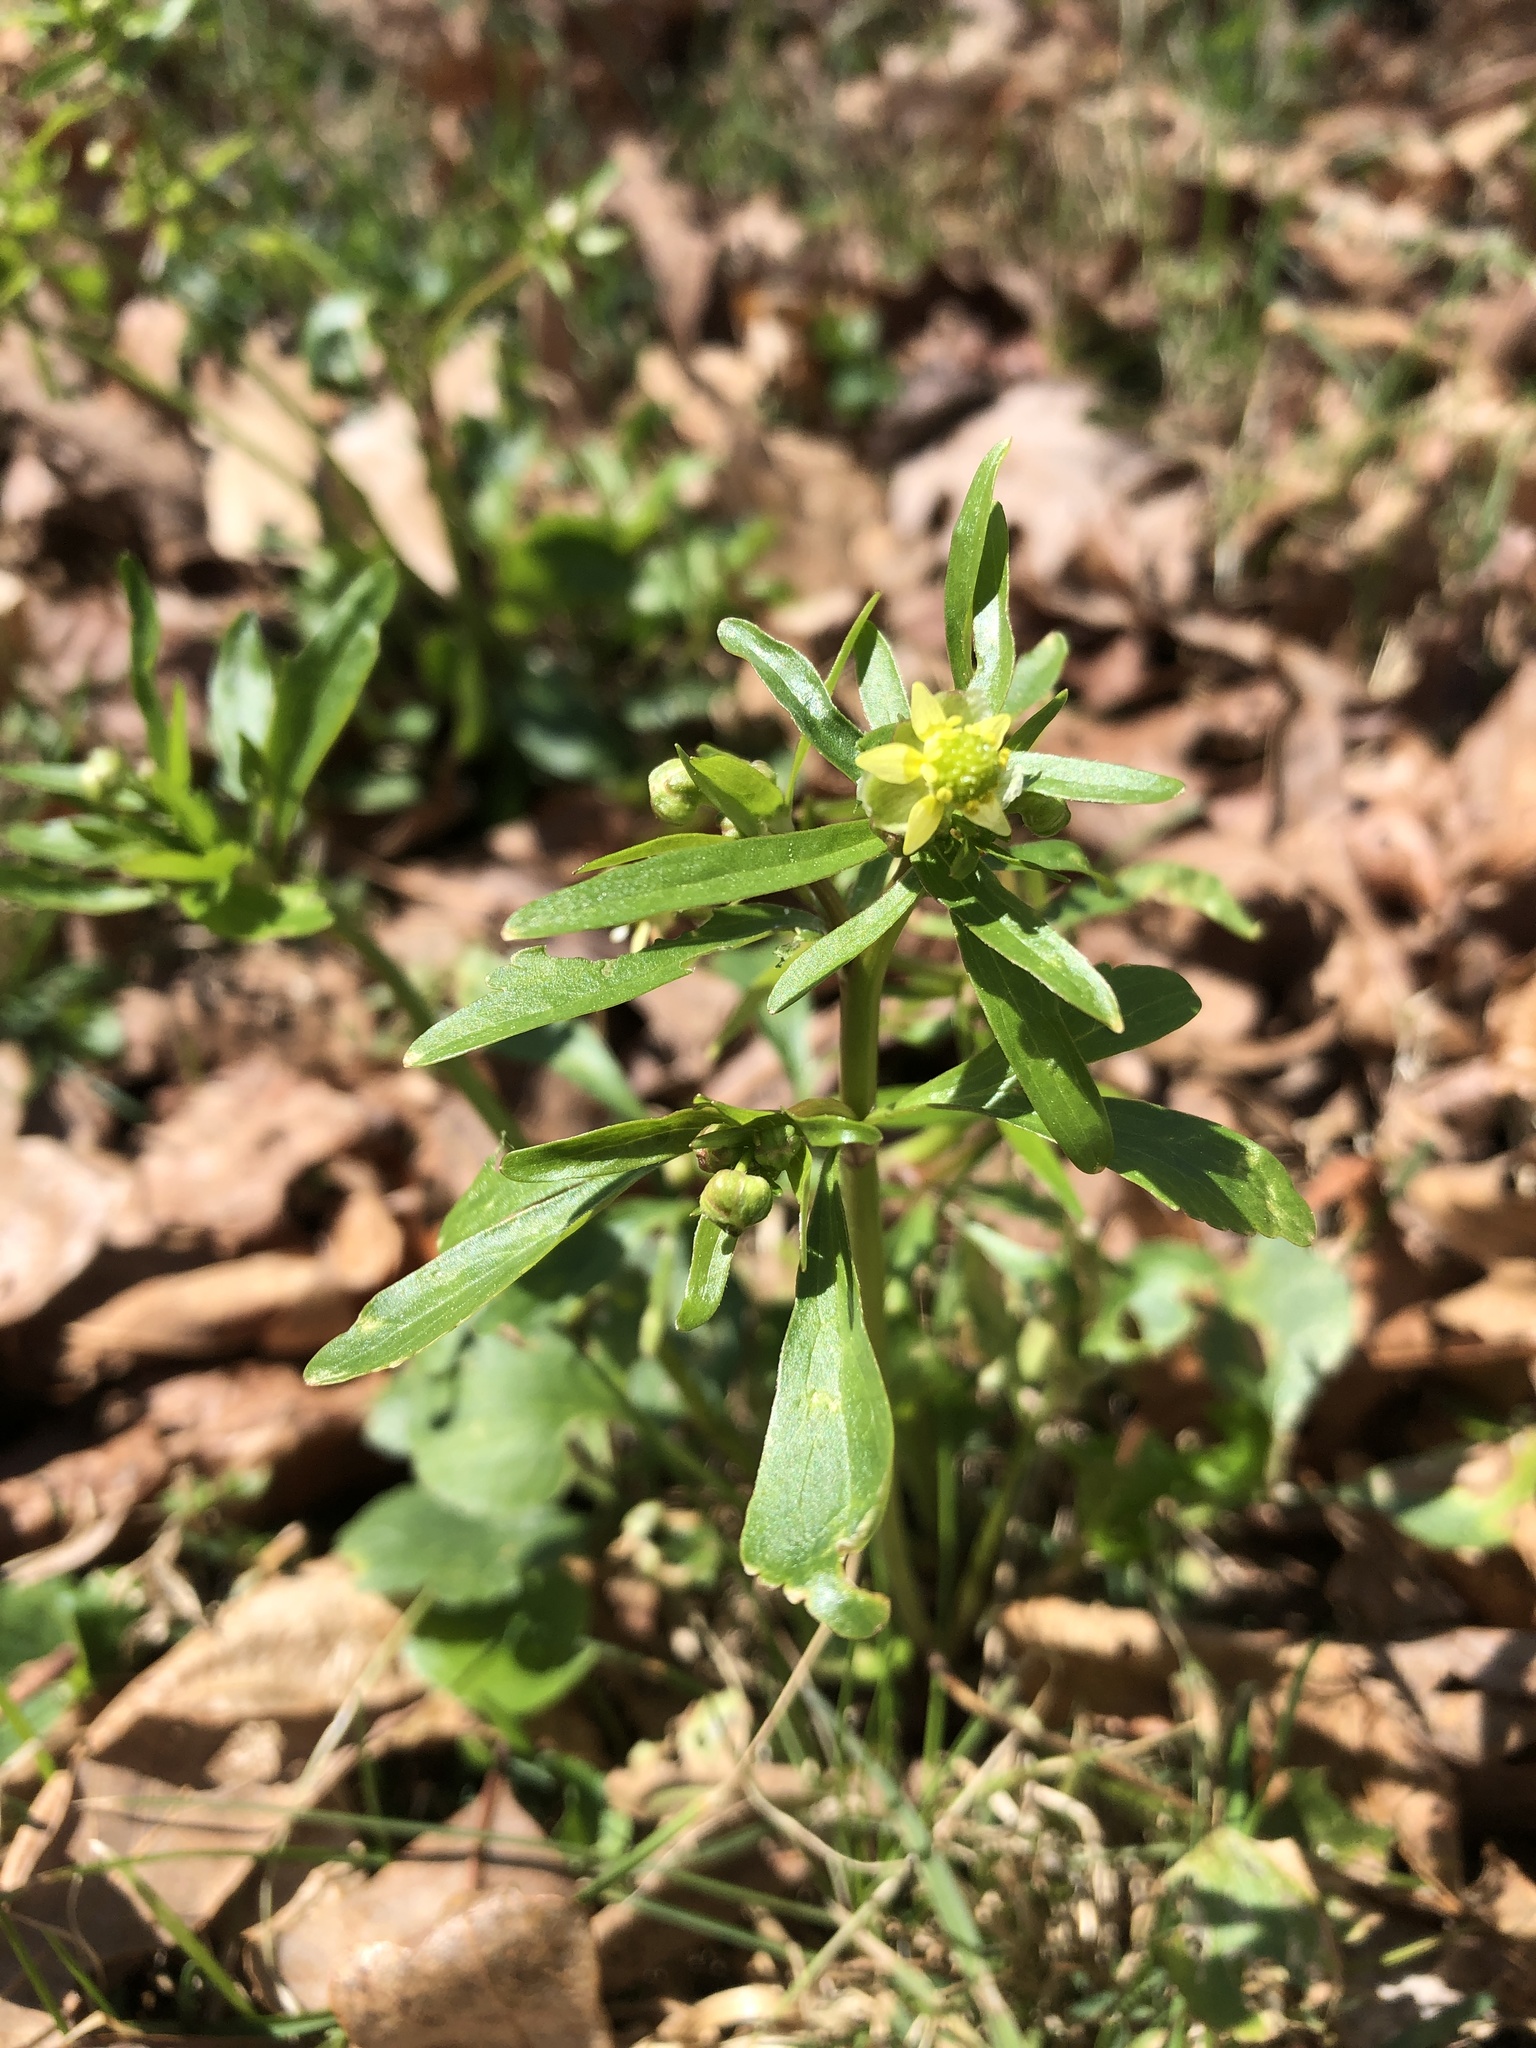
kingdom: Plantae
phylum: Tracheophyta
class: Magnoliopsida
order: Ranunculales
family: Ranunculaceae
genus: Ranunculus
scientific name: Ranunculus abortivus
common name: Early wood buttercup
